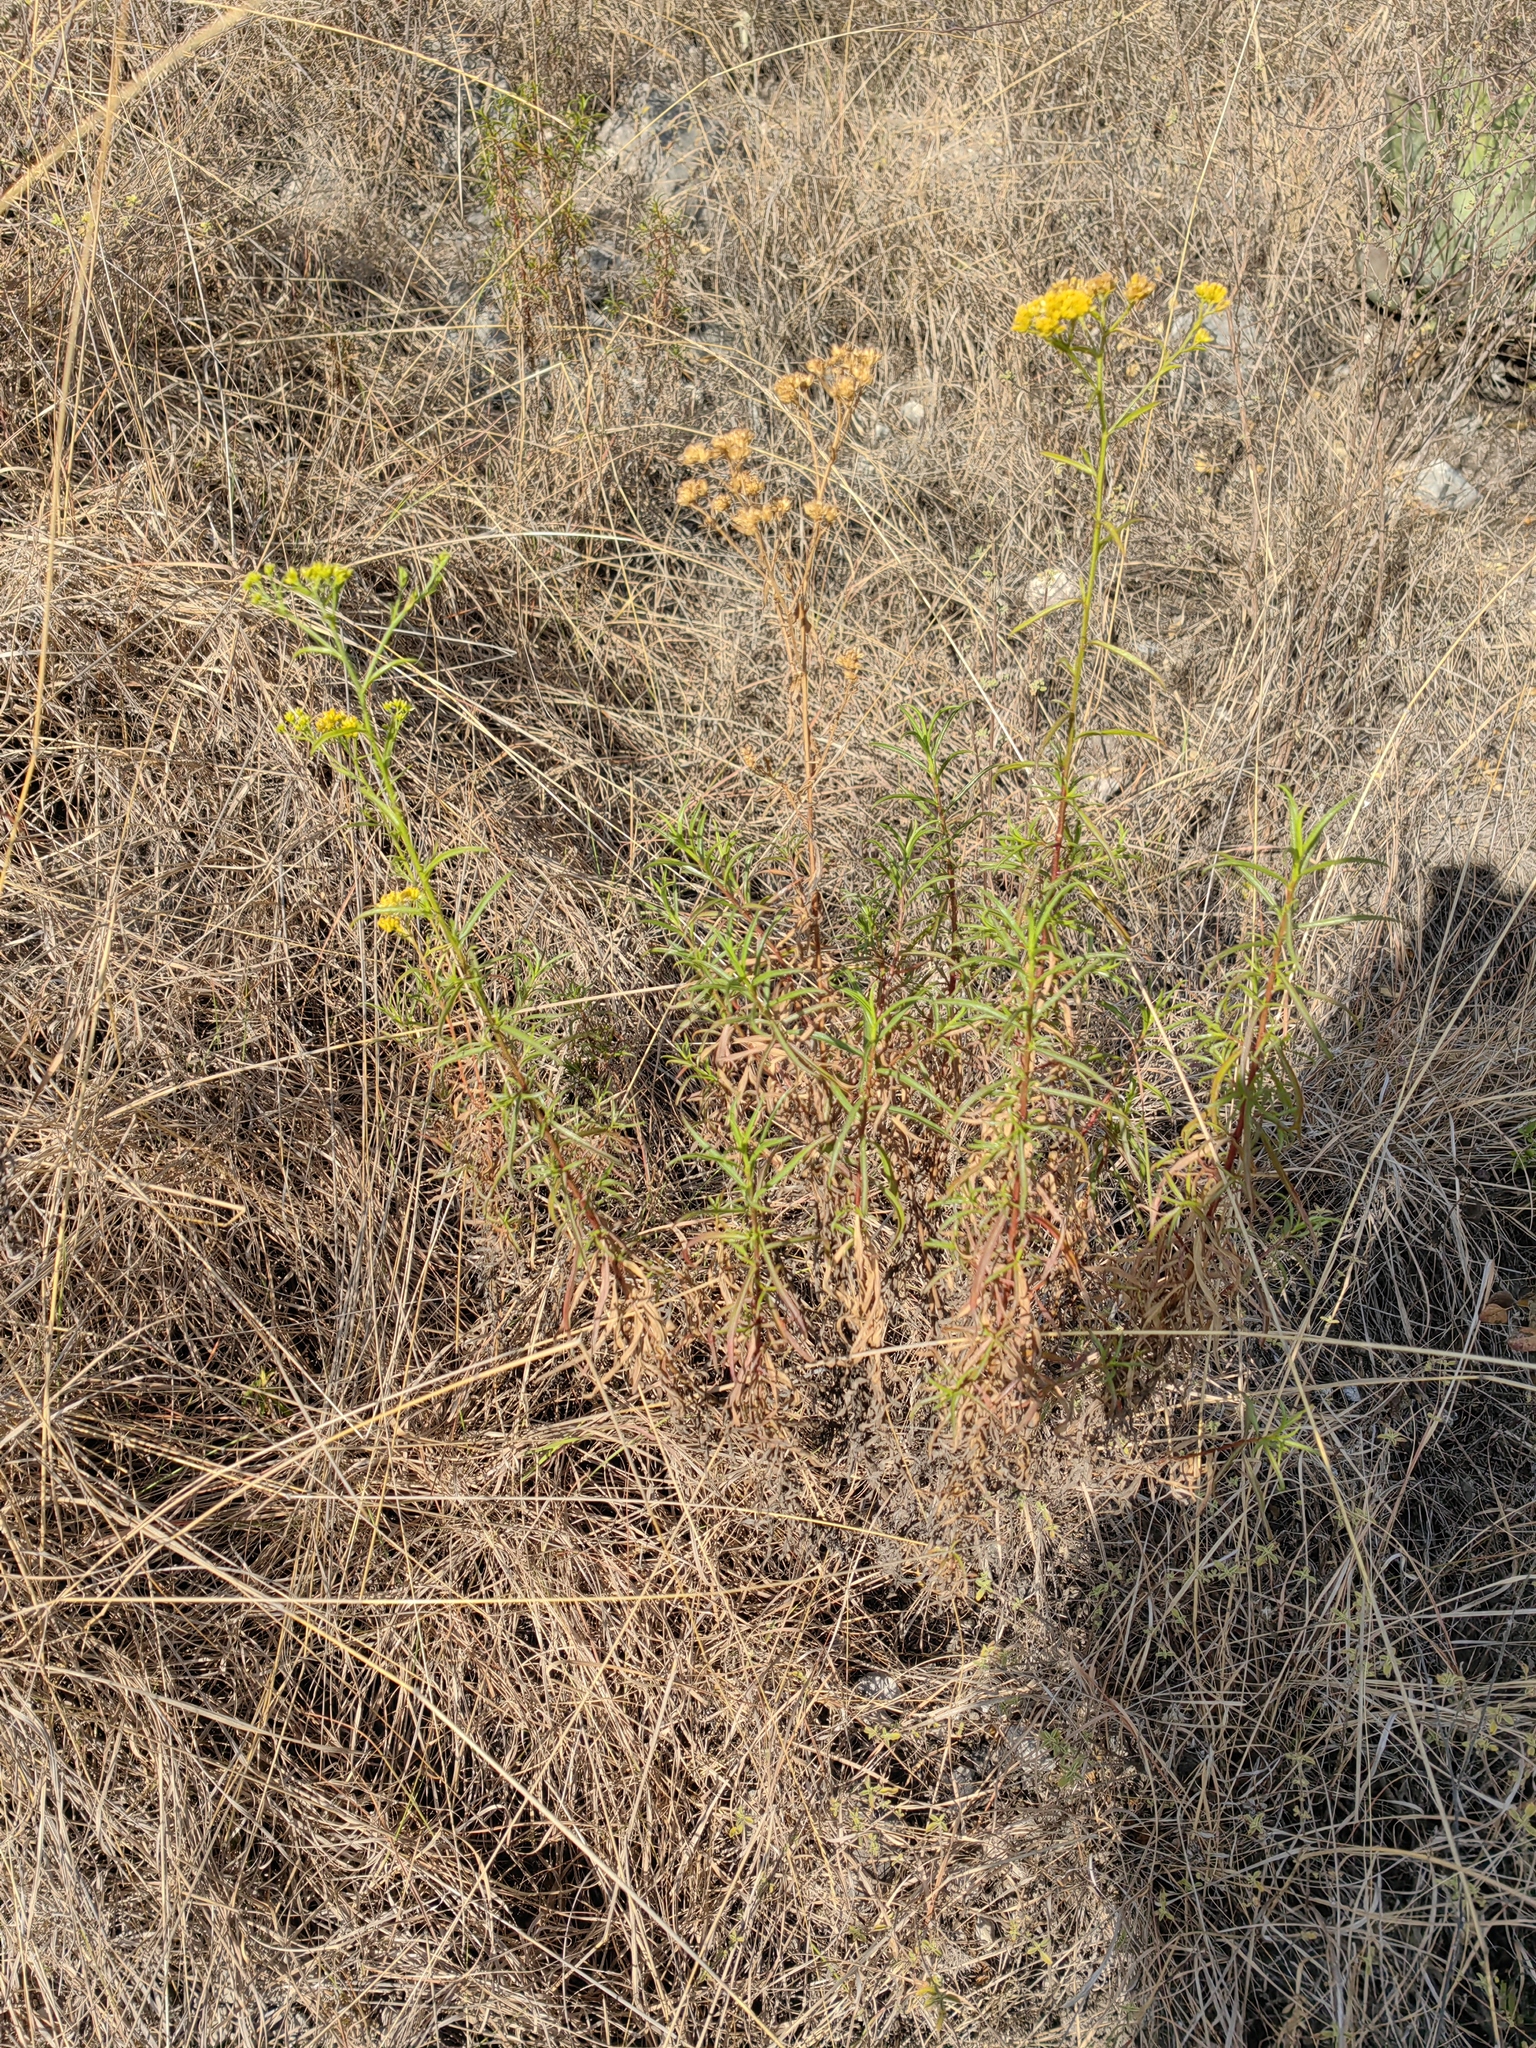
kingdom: Plantae
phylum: Tracheophyta
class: Magnoliopsida
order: Asterales
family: Asteraceae
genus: Gymnosperma
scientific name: Gymnosperma glutinosum
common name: Gumhead
